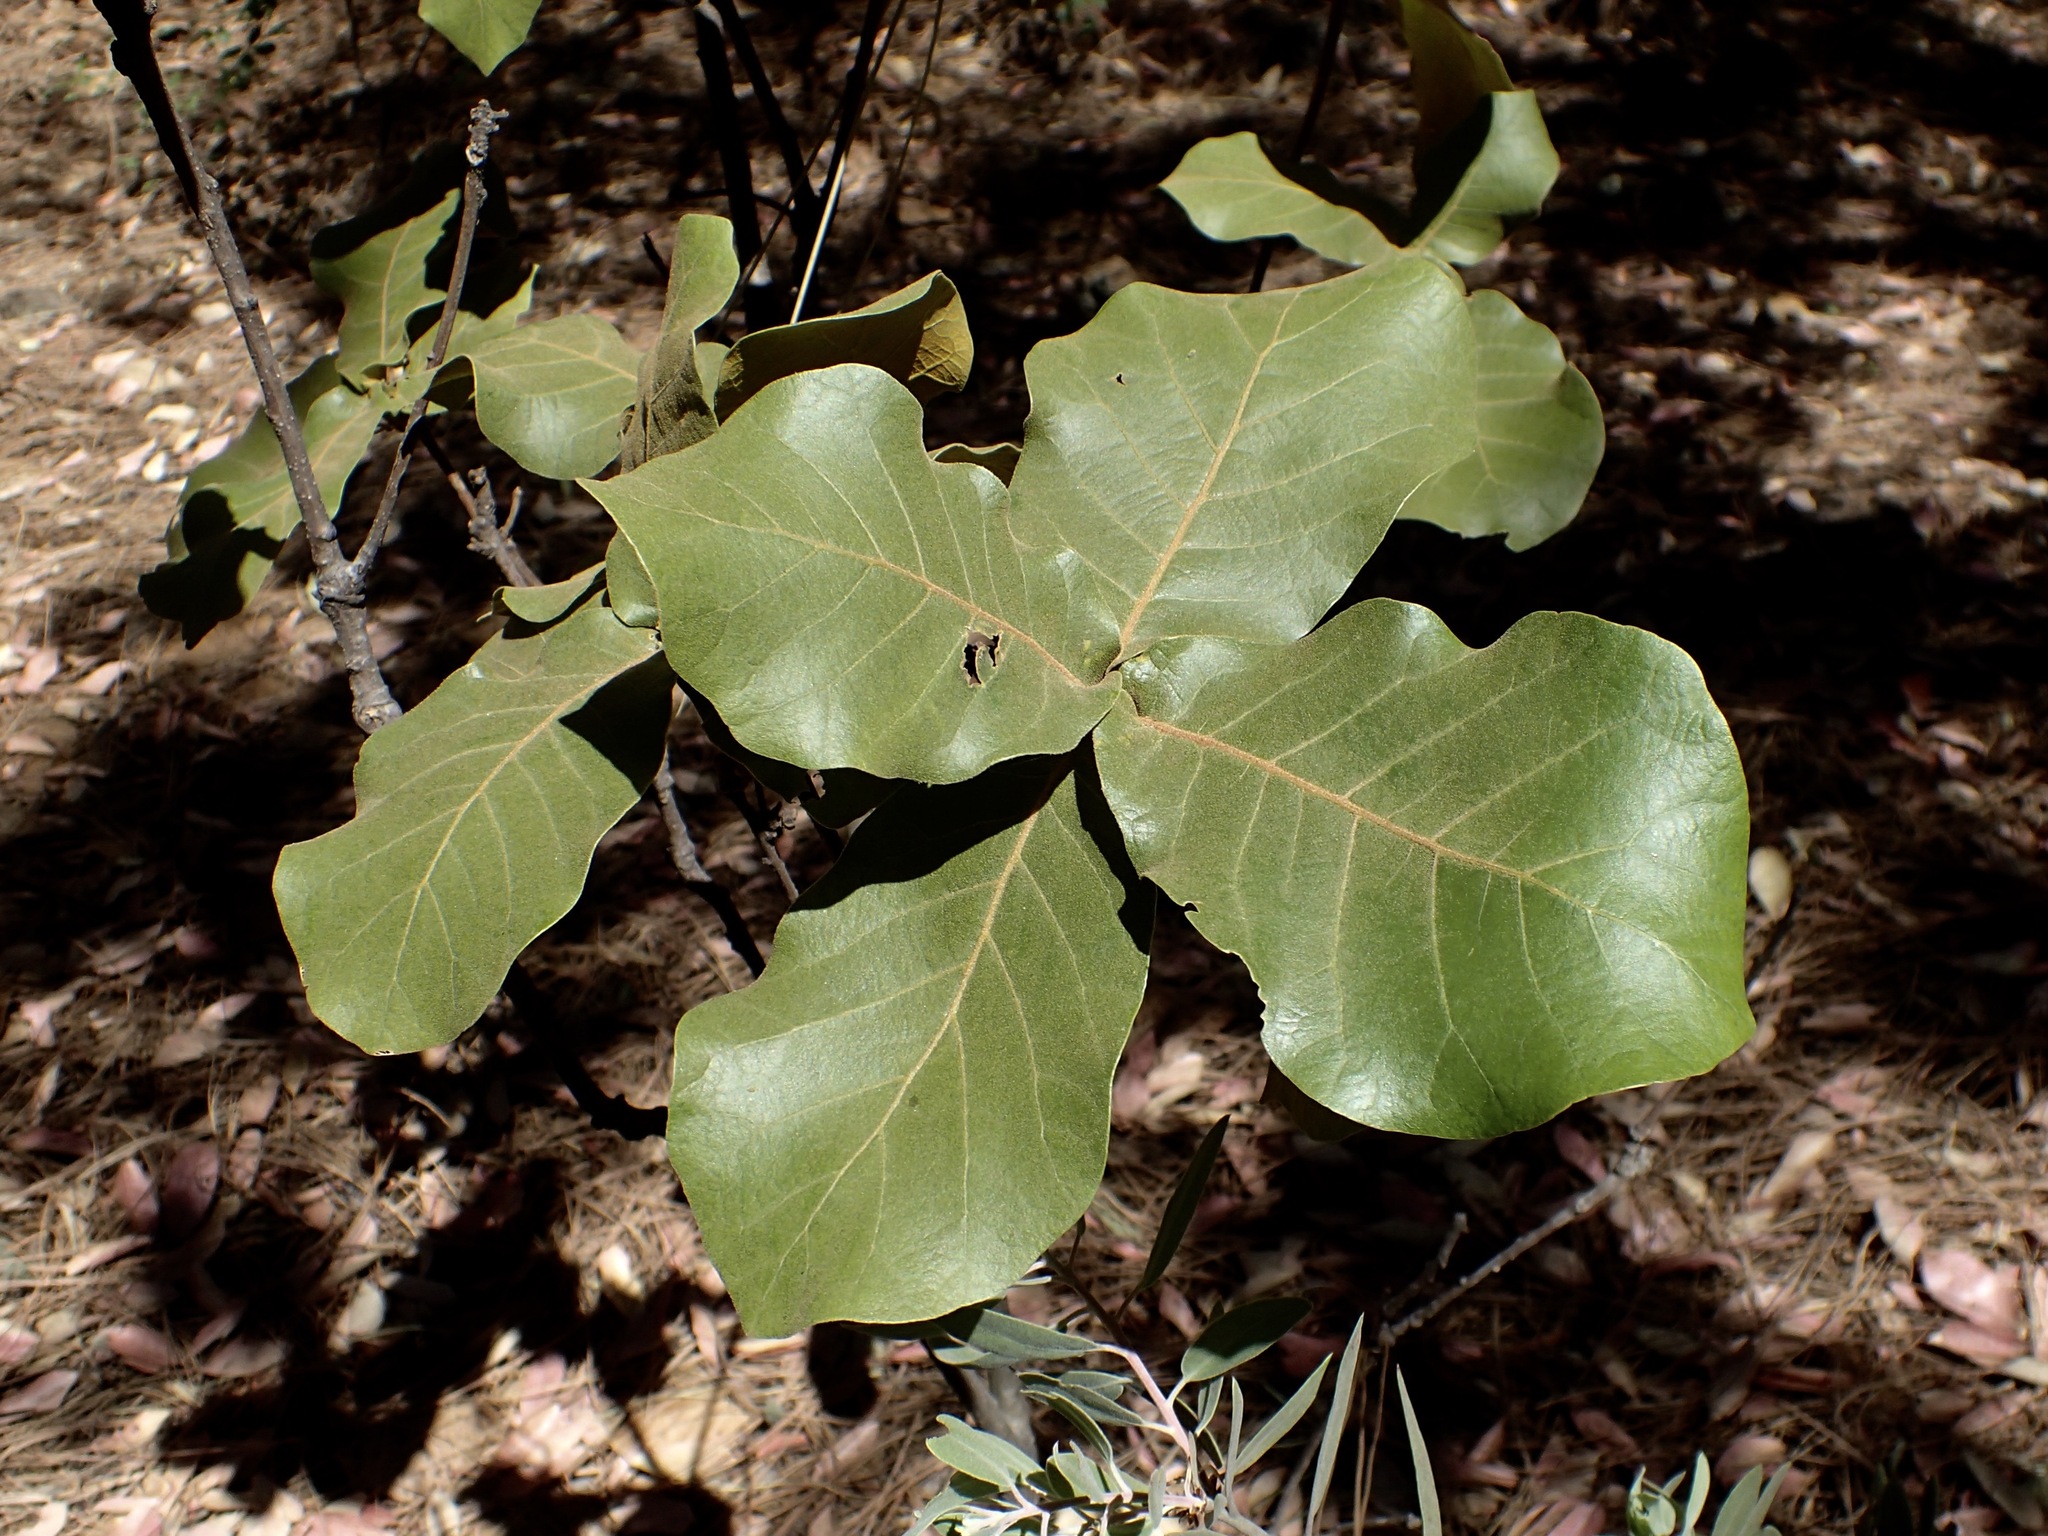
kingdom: Plantae
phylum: Tracheophyta
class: Magnoliopsida
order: Fagales
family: Fagaceae
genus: Quercus
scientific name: Quercus jonesii
